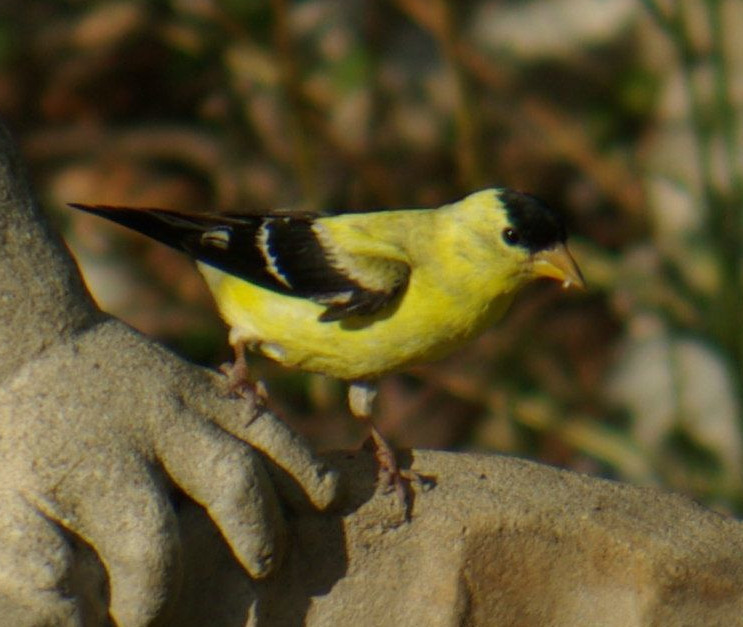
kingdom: Animalia
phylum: Chordata
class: Aves
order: Passeriformes
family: Fringillidae
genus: Spinus
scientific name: Spinus tristis
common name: American goldfinch
